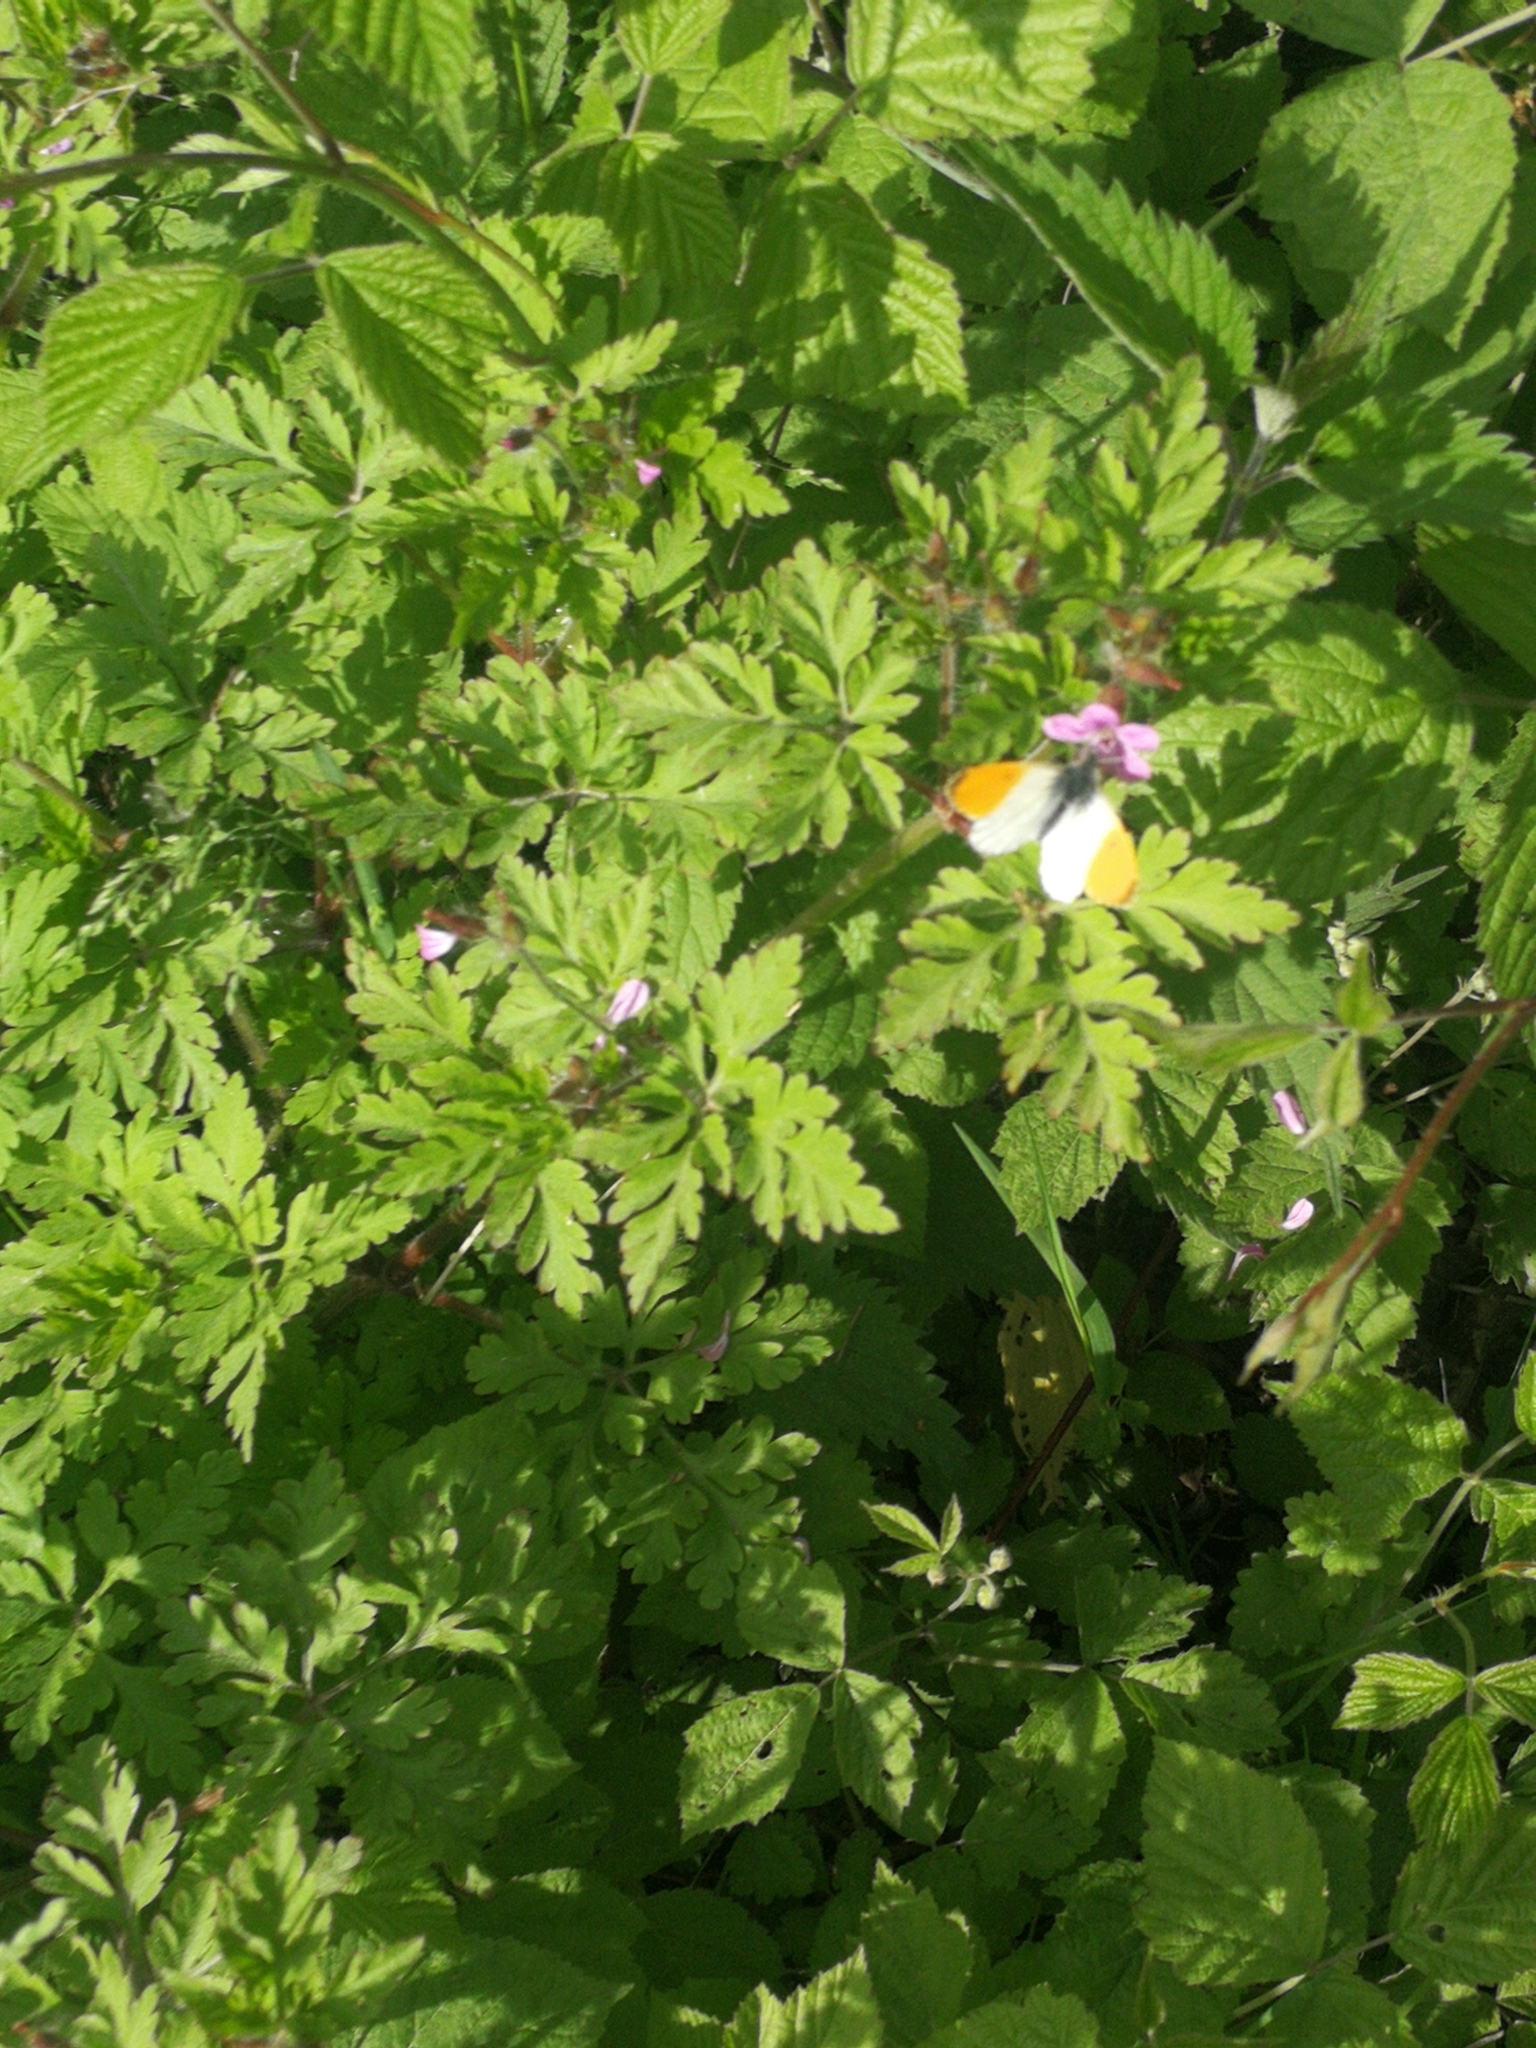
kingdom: Animalia
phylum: Arthropoda
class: Insecta
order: Lepidoptera
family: Pieridae
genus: Anthocharis
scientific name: Anthocharis cardamines
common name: Orange-tip
